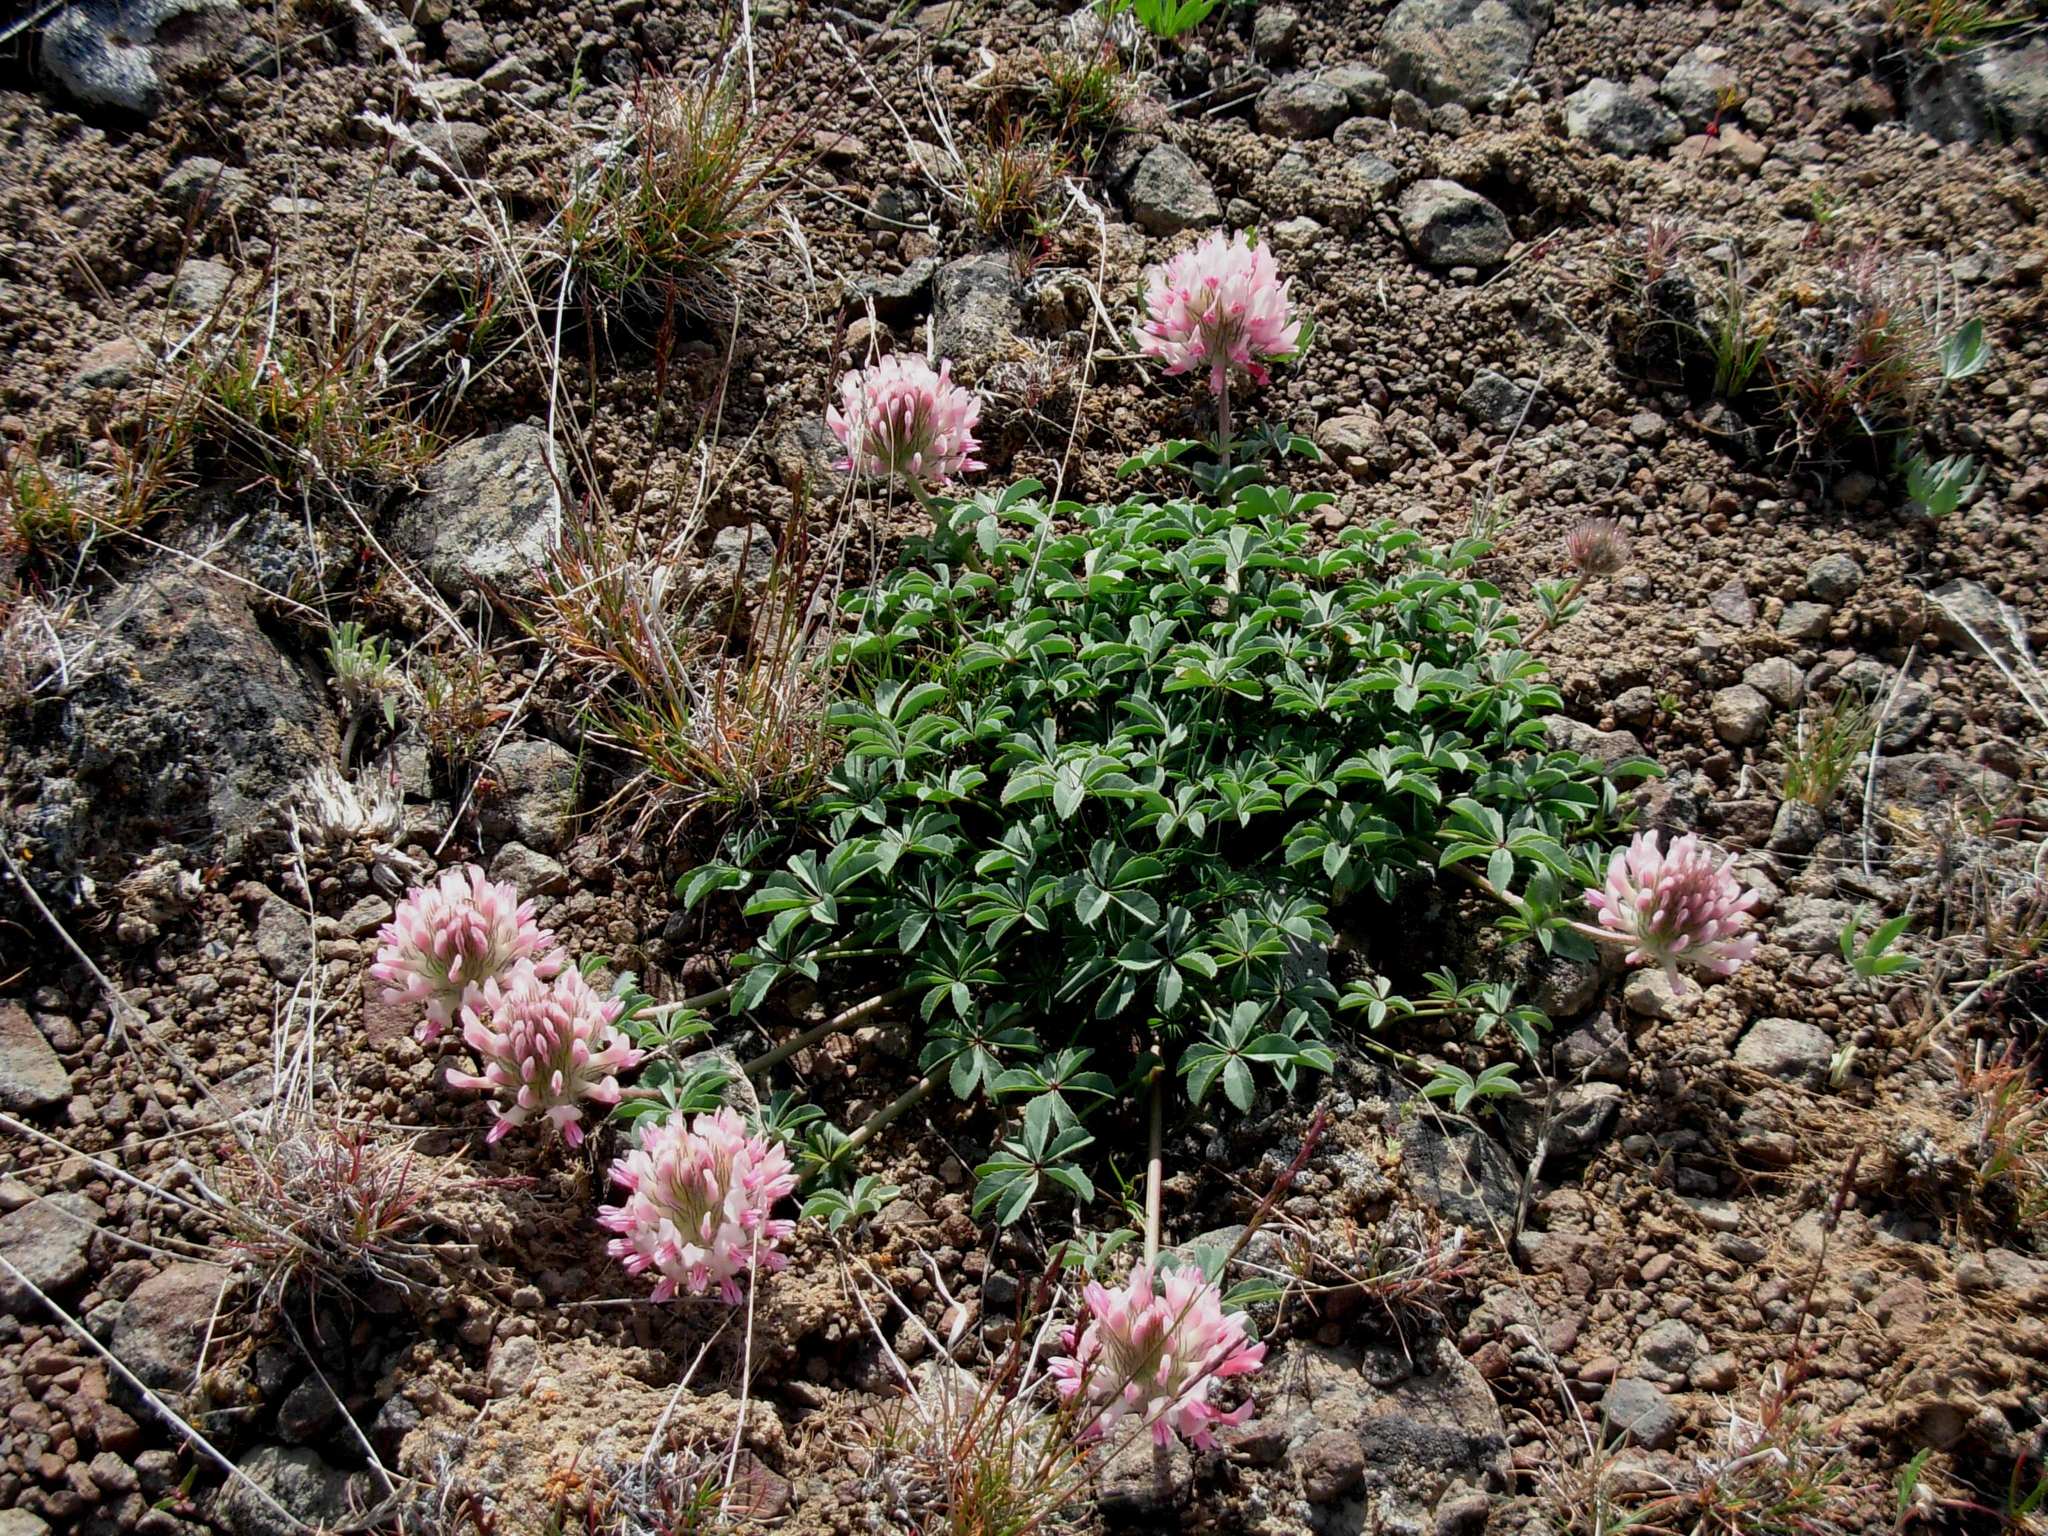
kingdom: Plantae
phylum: Tracheophyta
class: Magnoliopsida
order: Fabales
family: Fabaceae
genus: Trifolium
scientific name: Trifolium macrocephalum
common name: Large-head clover
